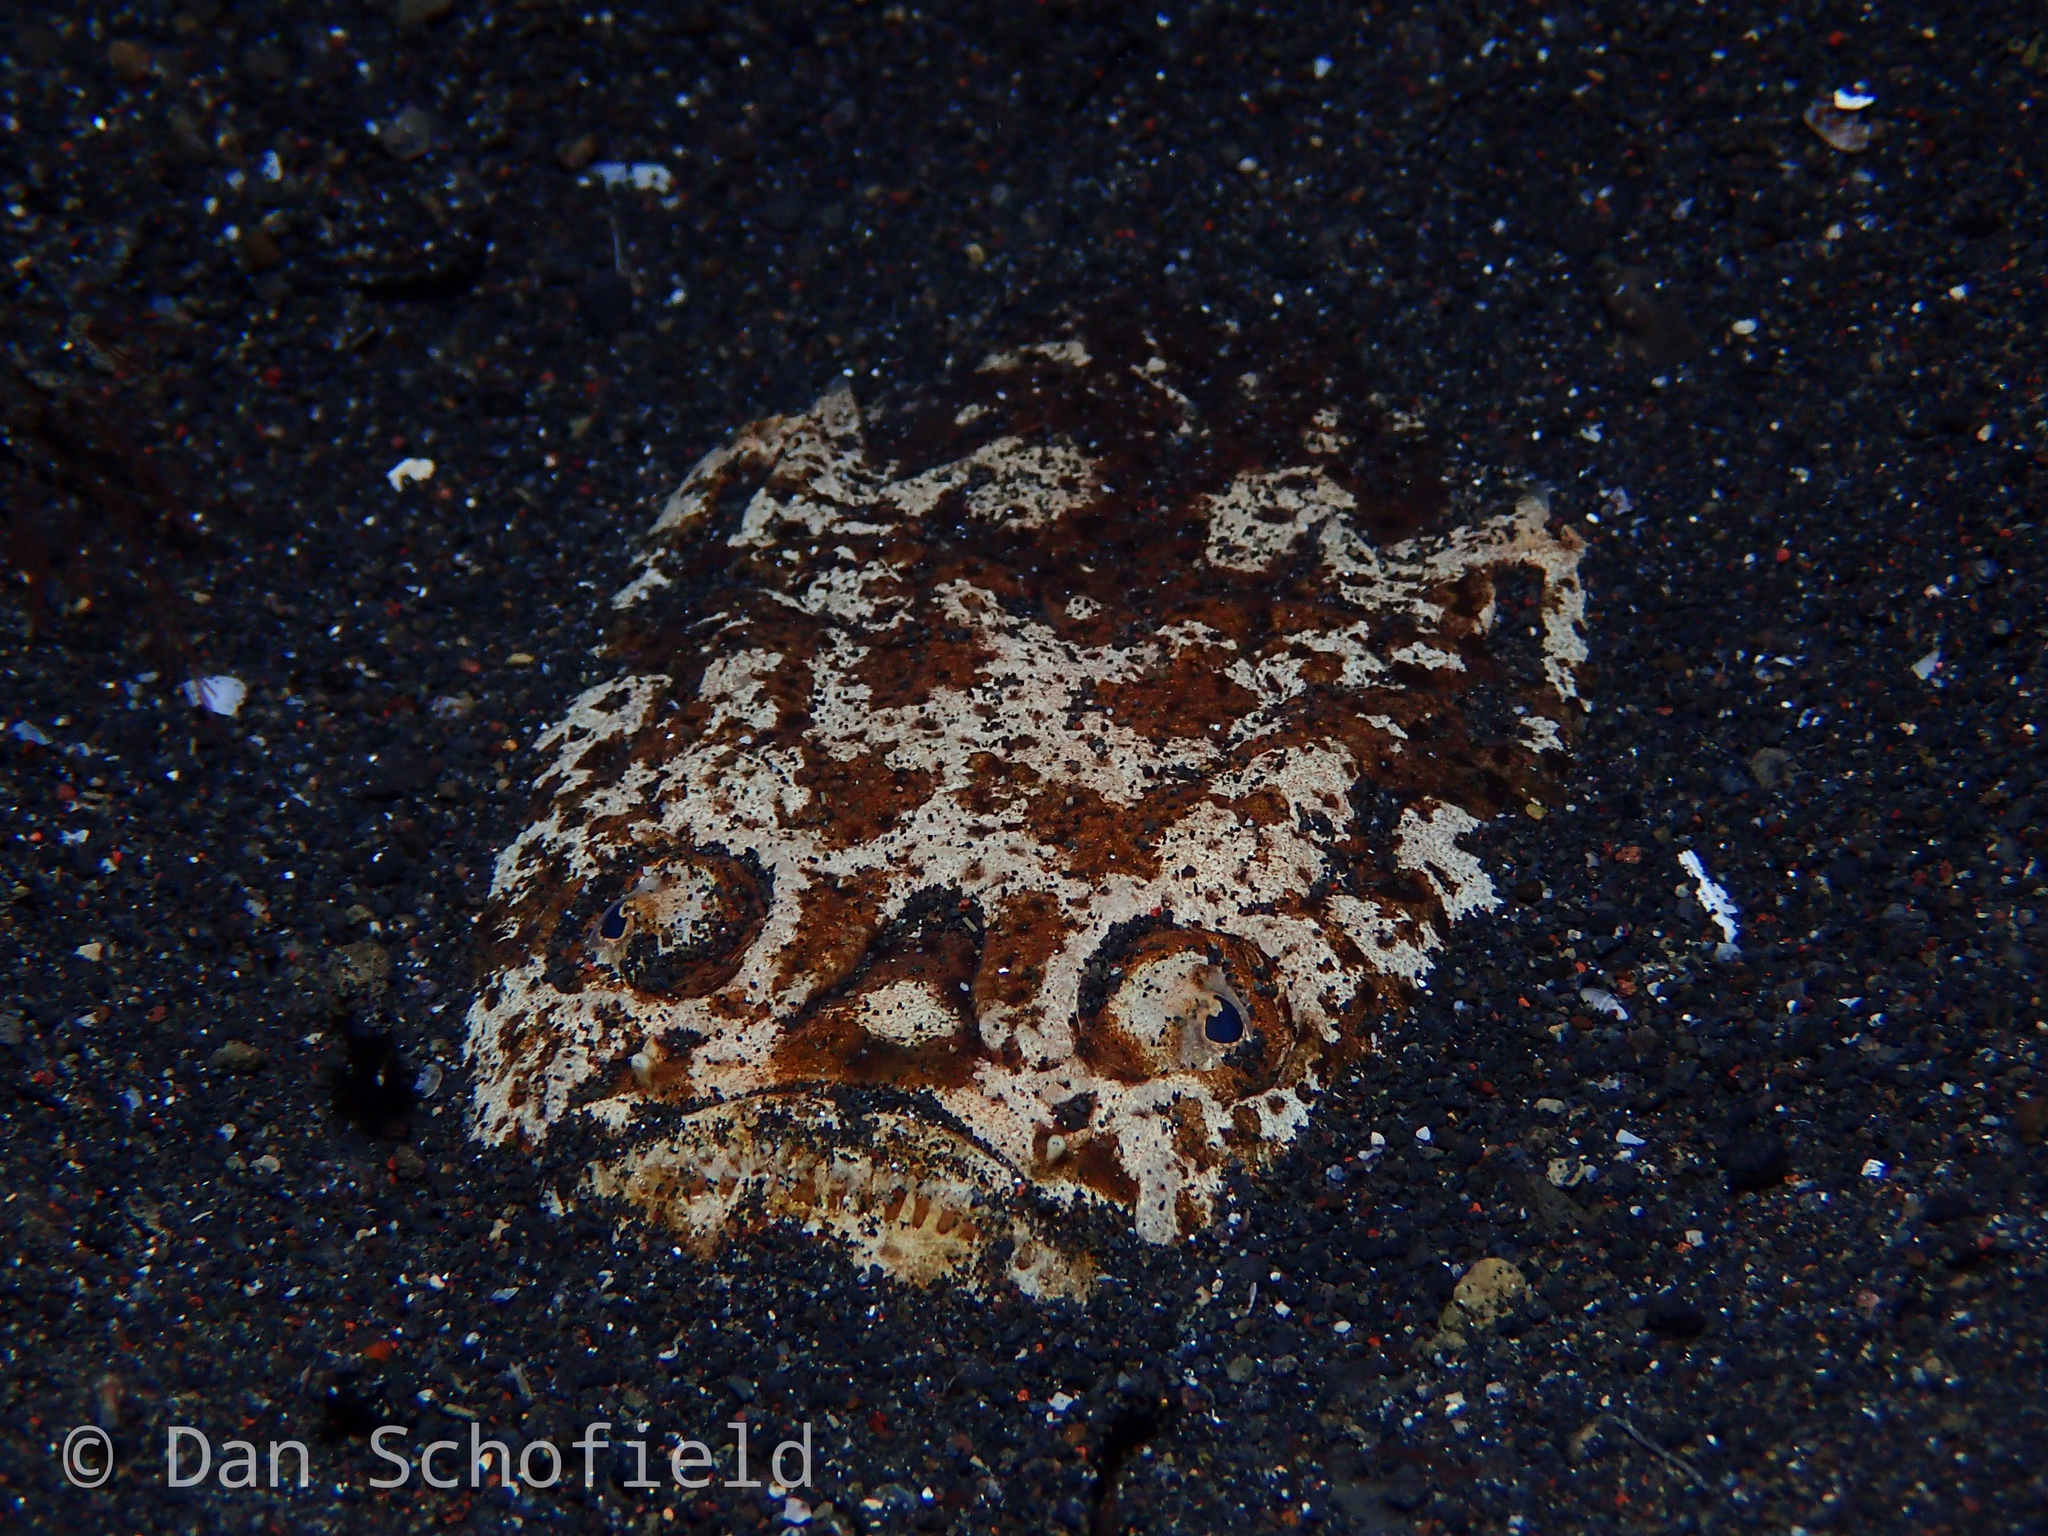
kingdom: Animalia
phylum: Chordata
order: Perciformes
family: Uranoscopidae
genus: Uranoscopus
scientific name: Uranoscopus bicinctus
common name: Marbled stargazer
